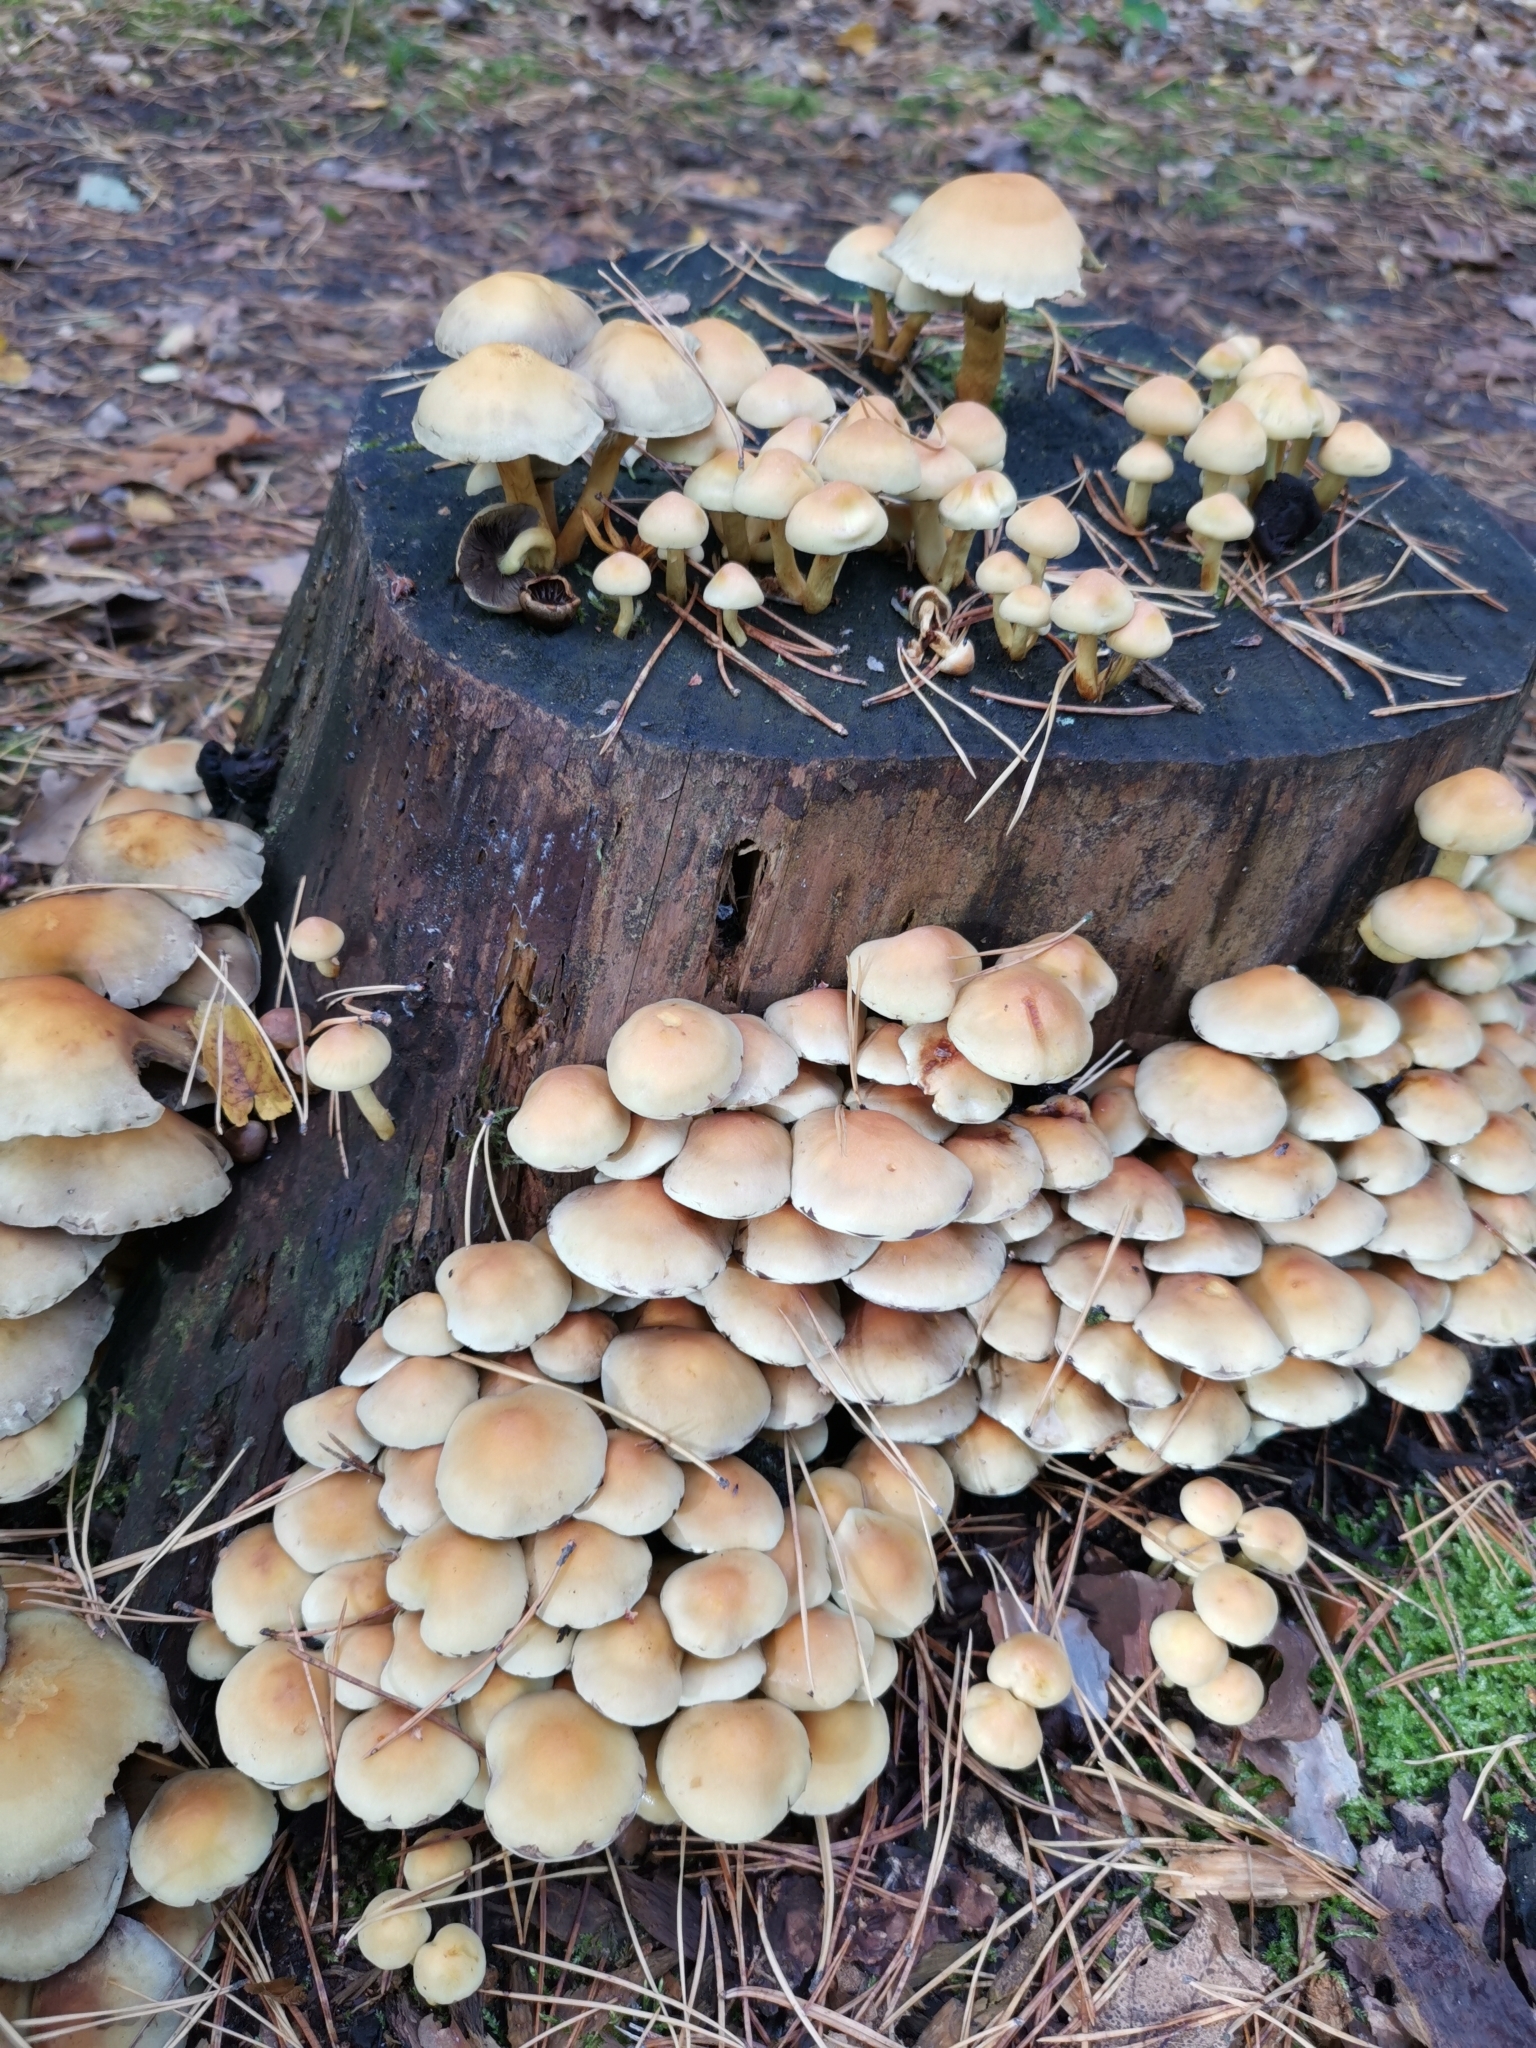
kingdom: Fungi
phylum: Basidiomycota
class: Agaricomycetes
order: Agaricales
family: Strophariaceae
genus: Hypholoma
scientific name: Hypholoma fasciculare
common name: Sulphur tuft
